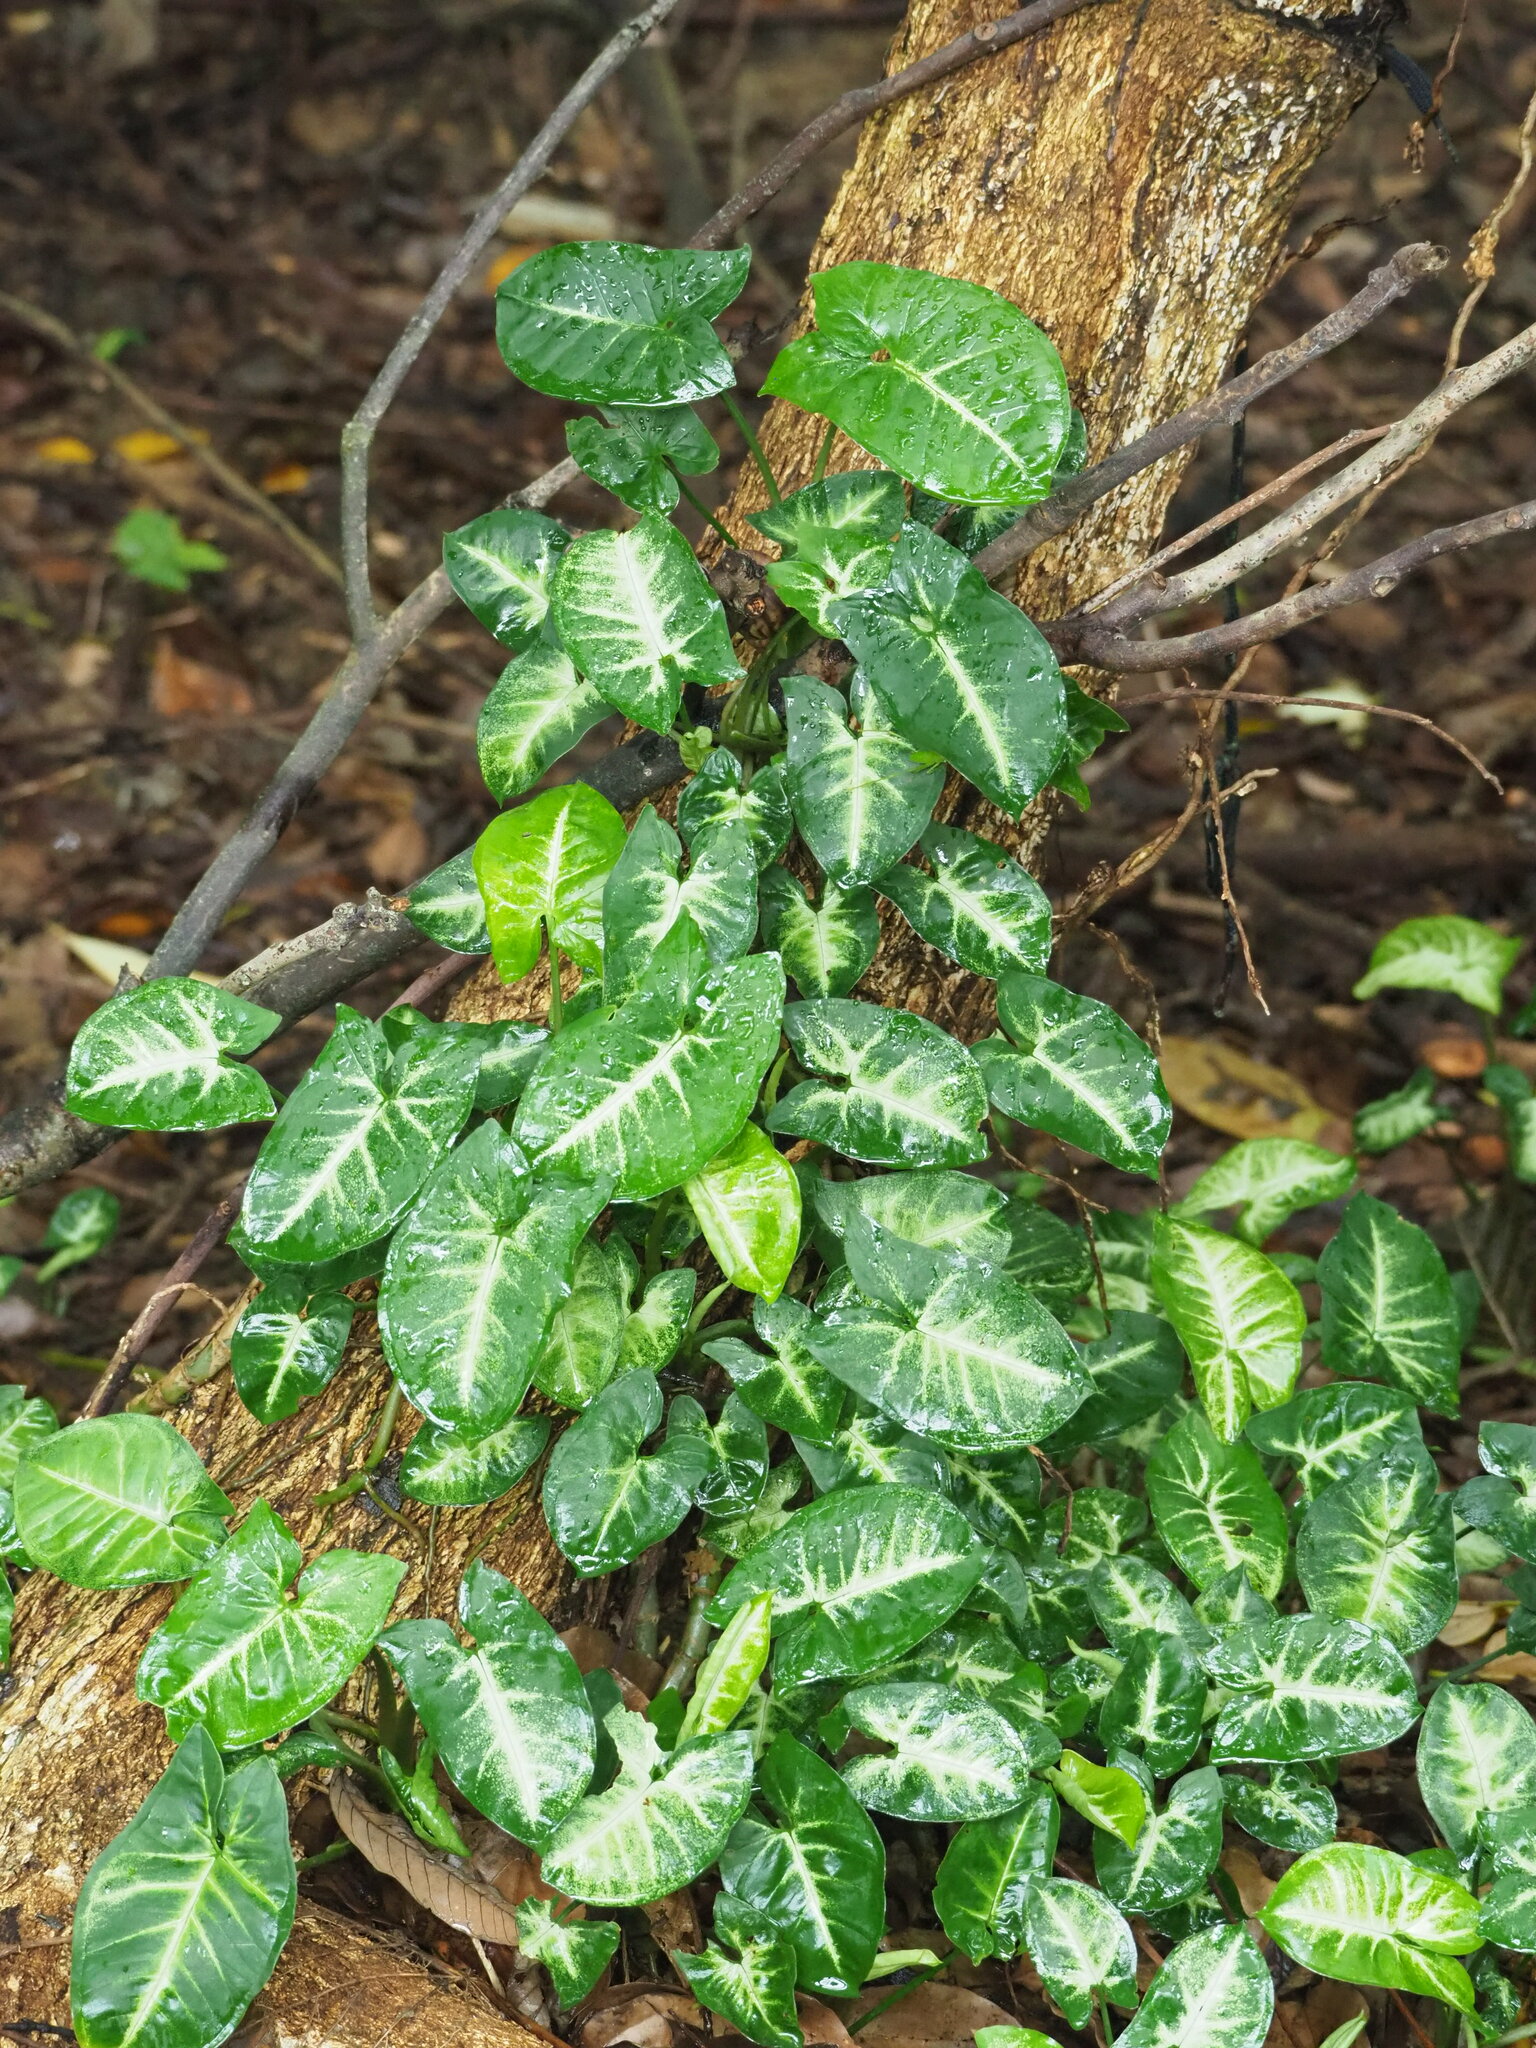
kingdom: Plantae
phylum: Tracheophyta
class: Liliopsida
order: Alismatales
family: Araceae
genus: Syngonium
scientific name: Syngonium podophyllum
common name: American evergreen
